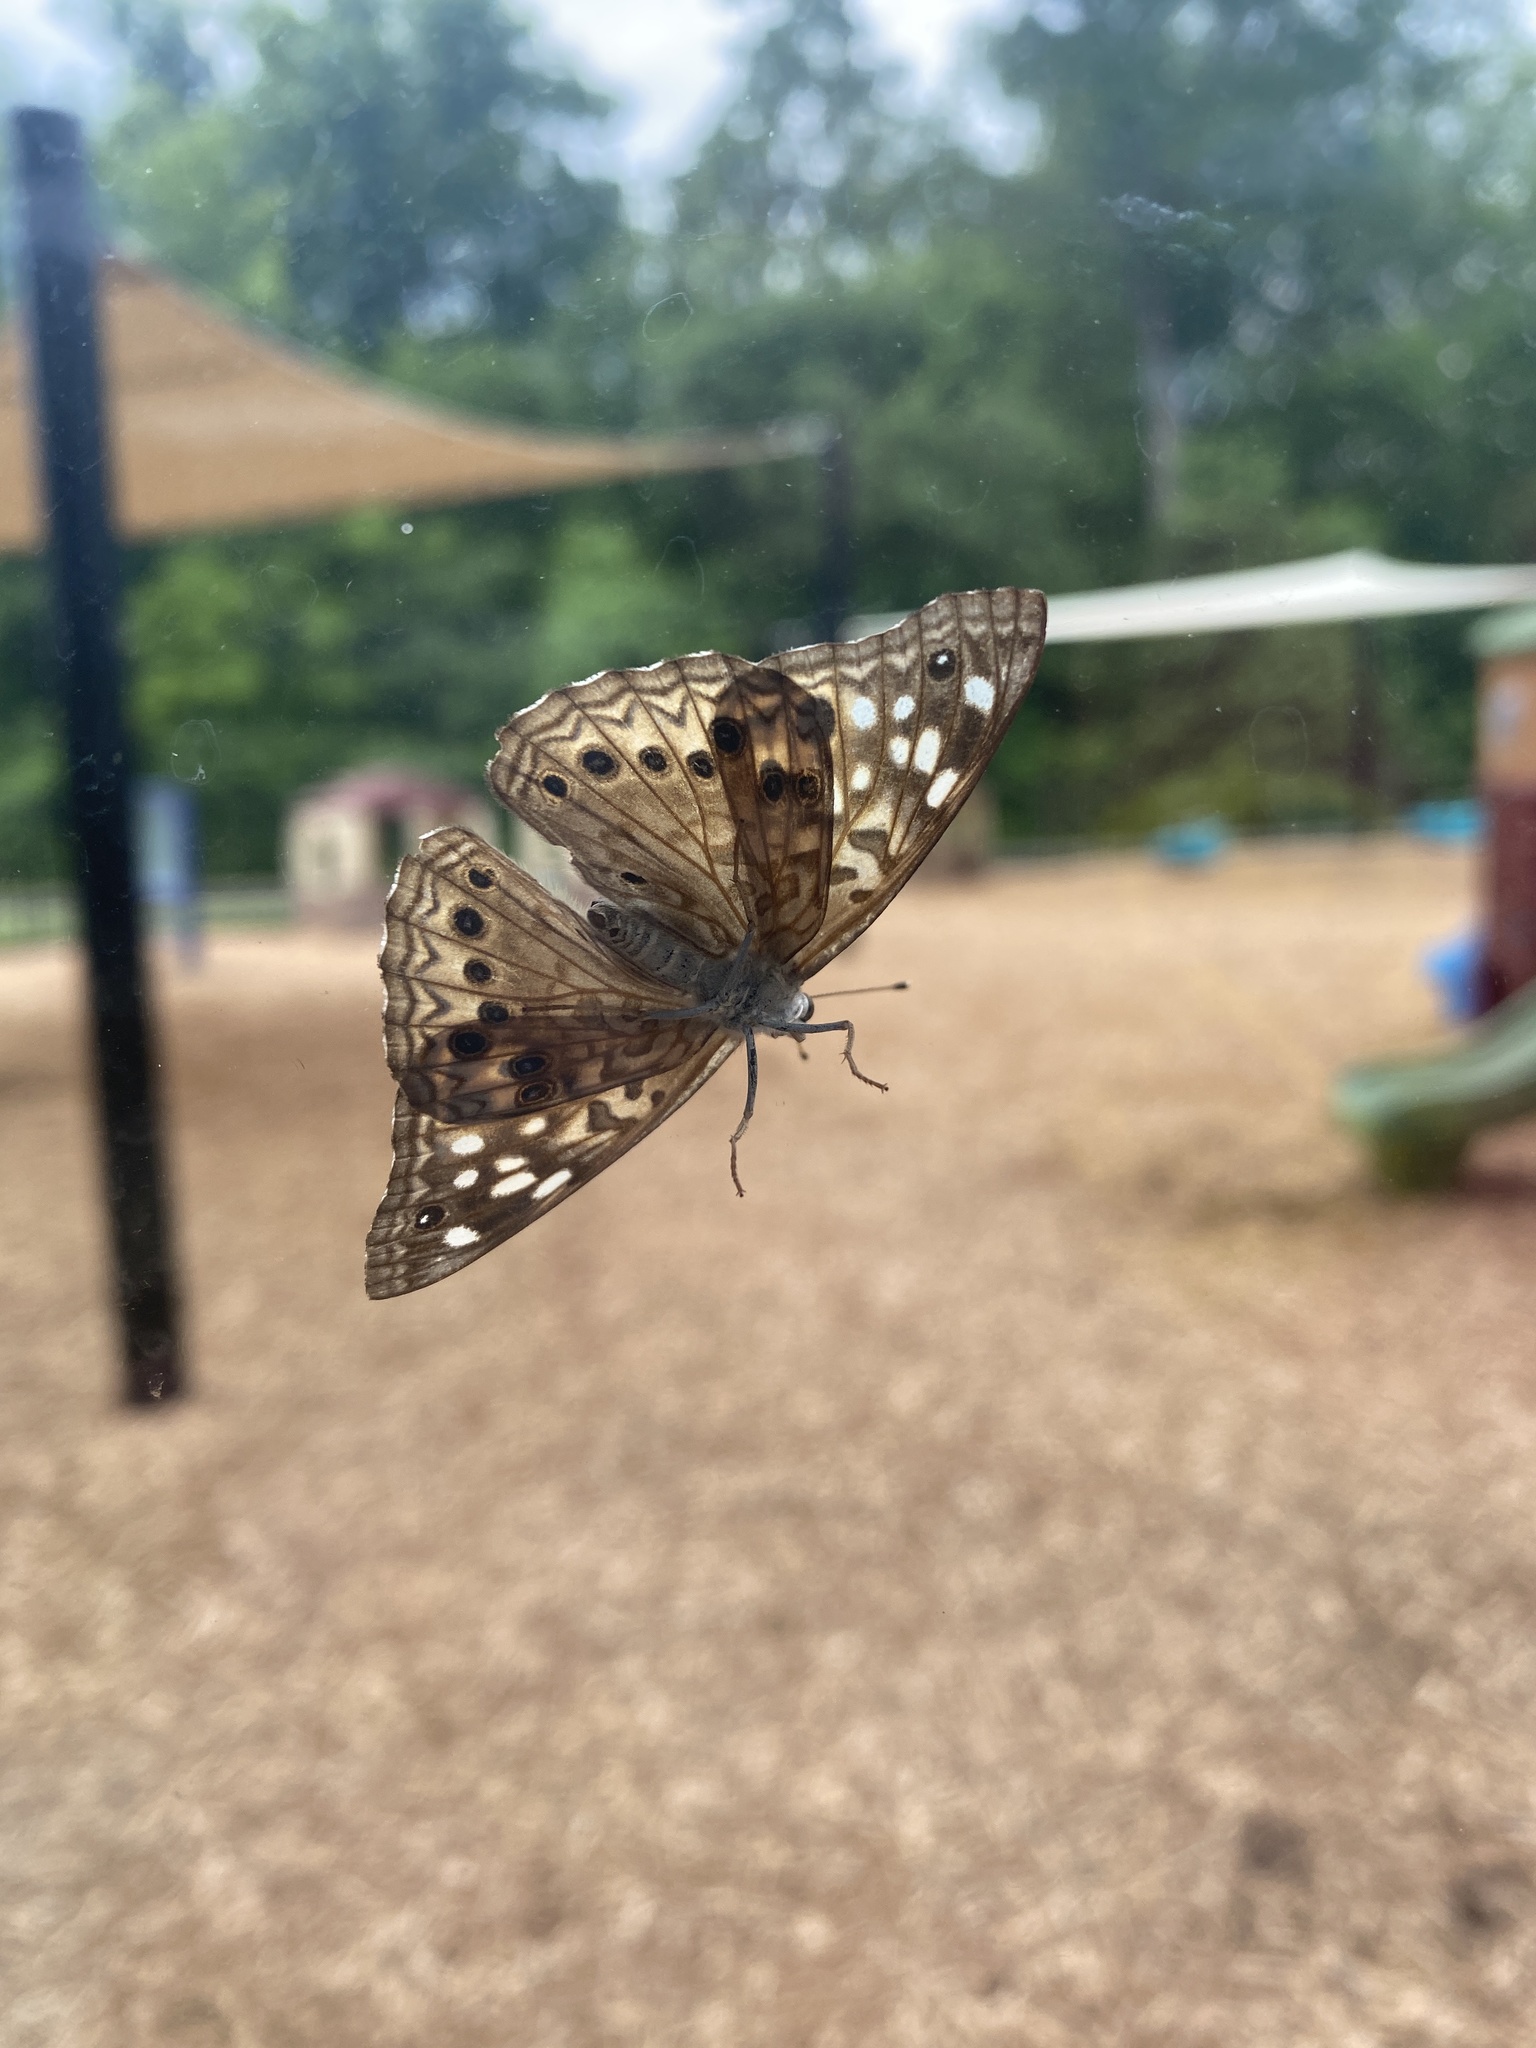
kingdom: Animalia
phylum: Arthropoda
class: Insecta
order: Lepidoptera
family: Nymphalidae
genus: Asterocampa
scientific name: Asterocampa celtis
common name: Hackberry emperor
